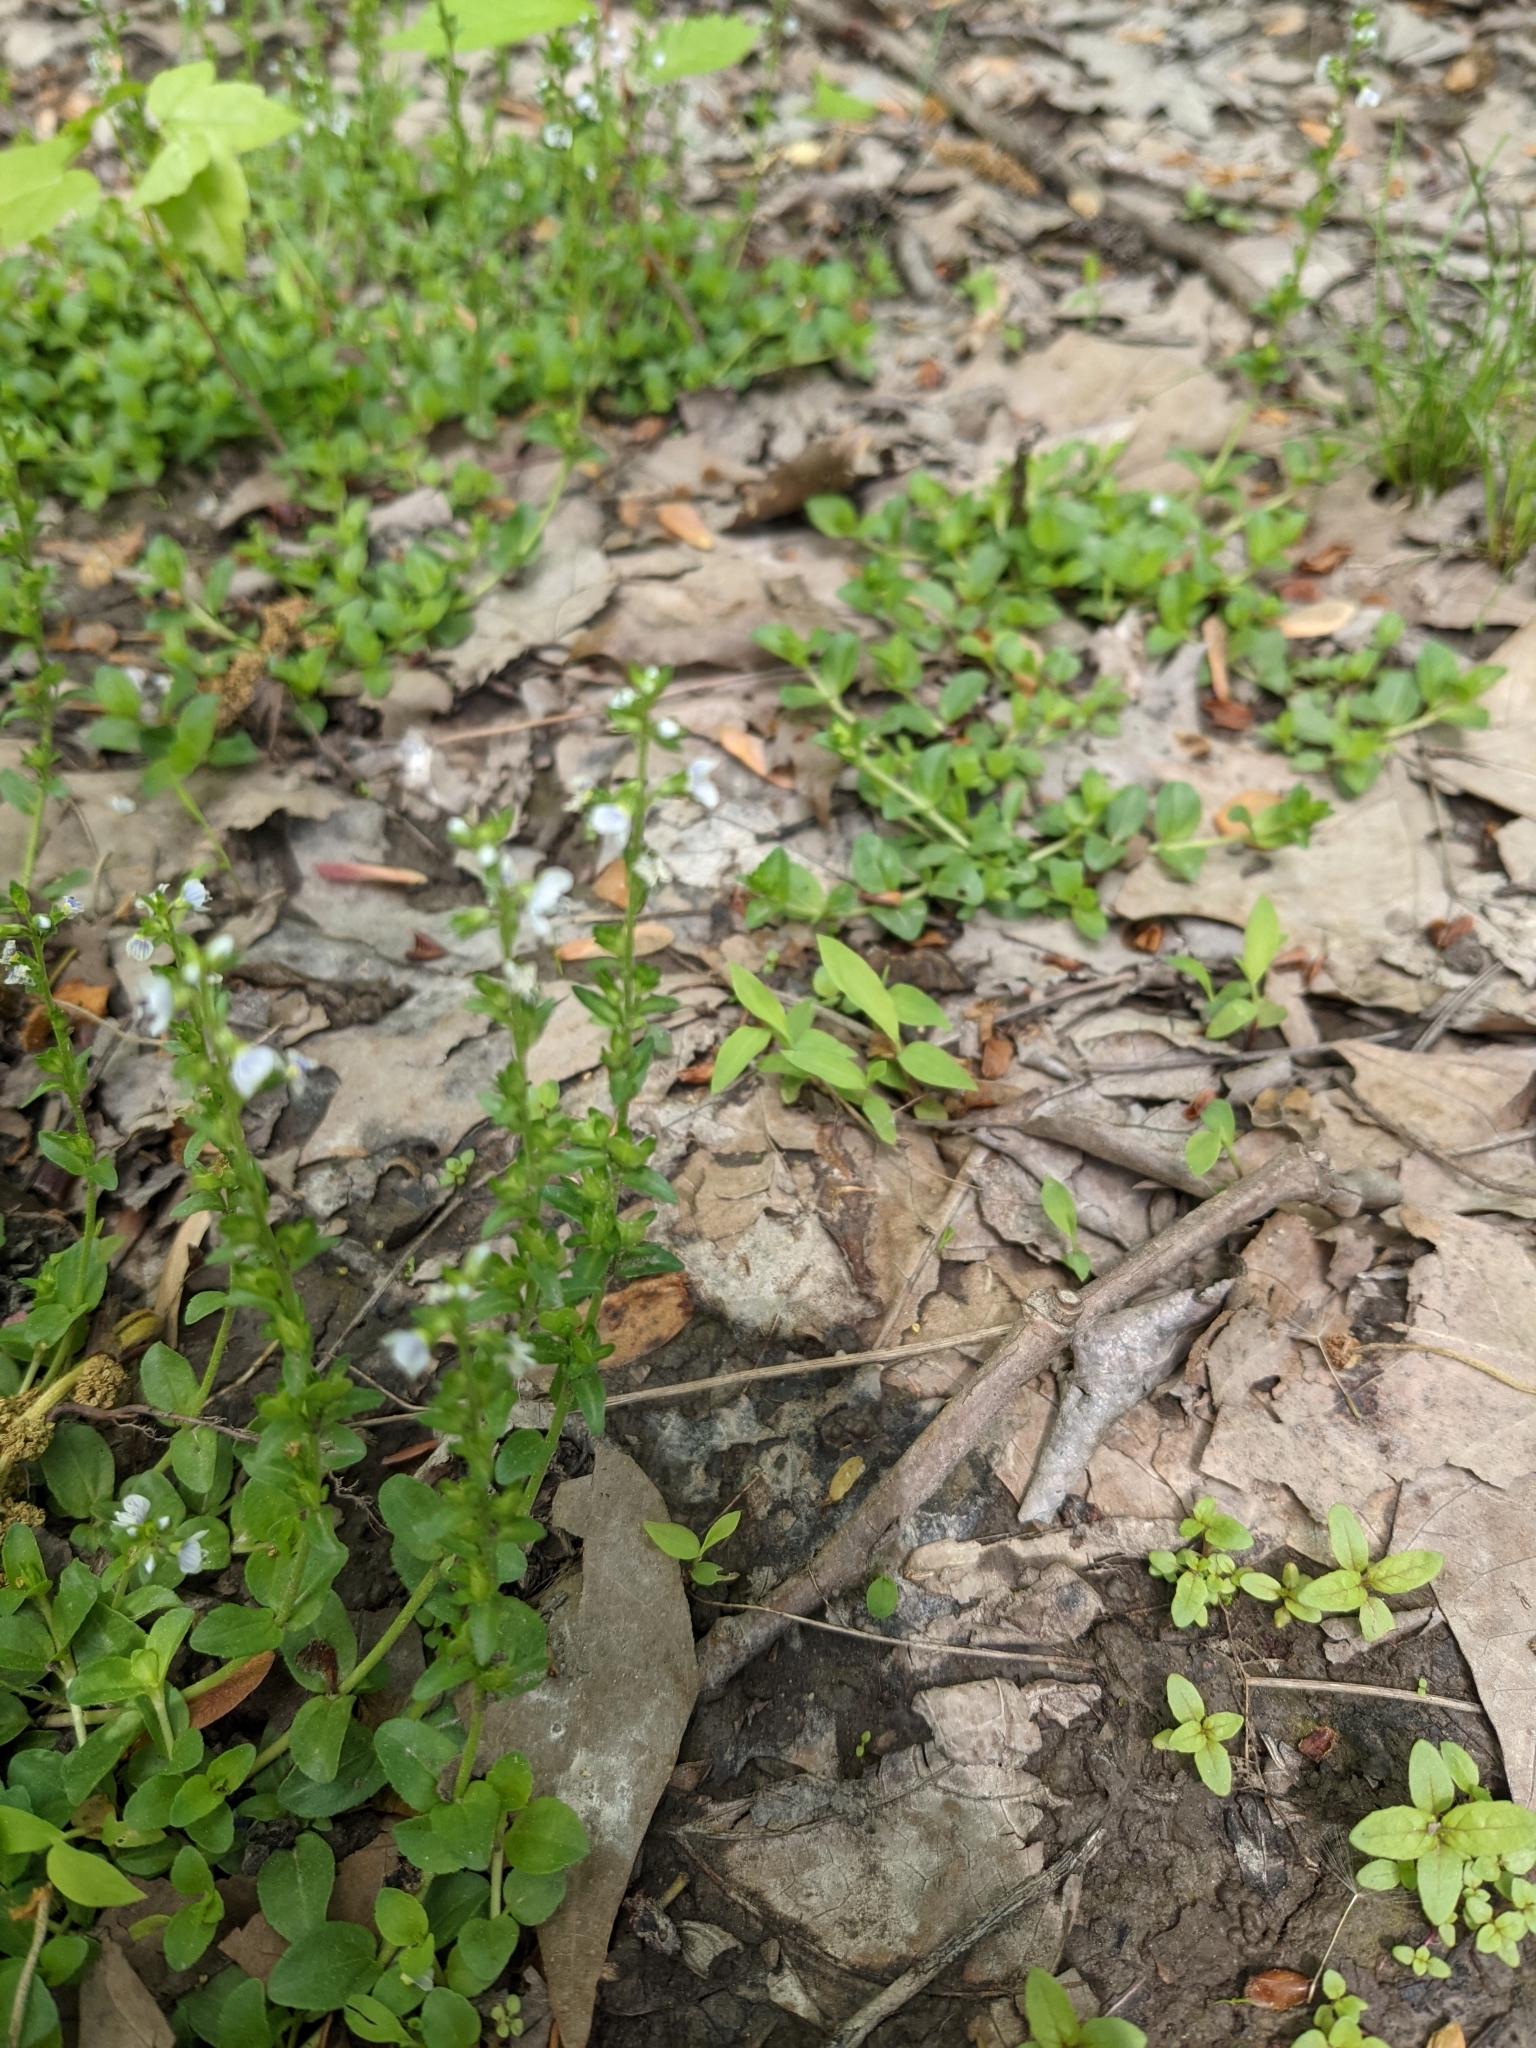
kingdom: Plantae
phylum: Tracheophyta
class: Magnoliopsida
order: Lamiales
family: Plantaginaceae
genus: Veronica
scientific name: Veronica serpyllifolia
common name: Thyme-leaved speedwell
